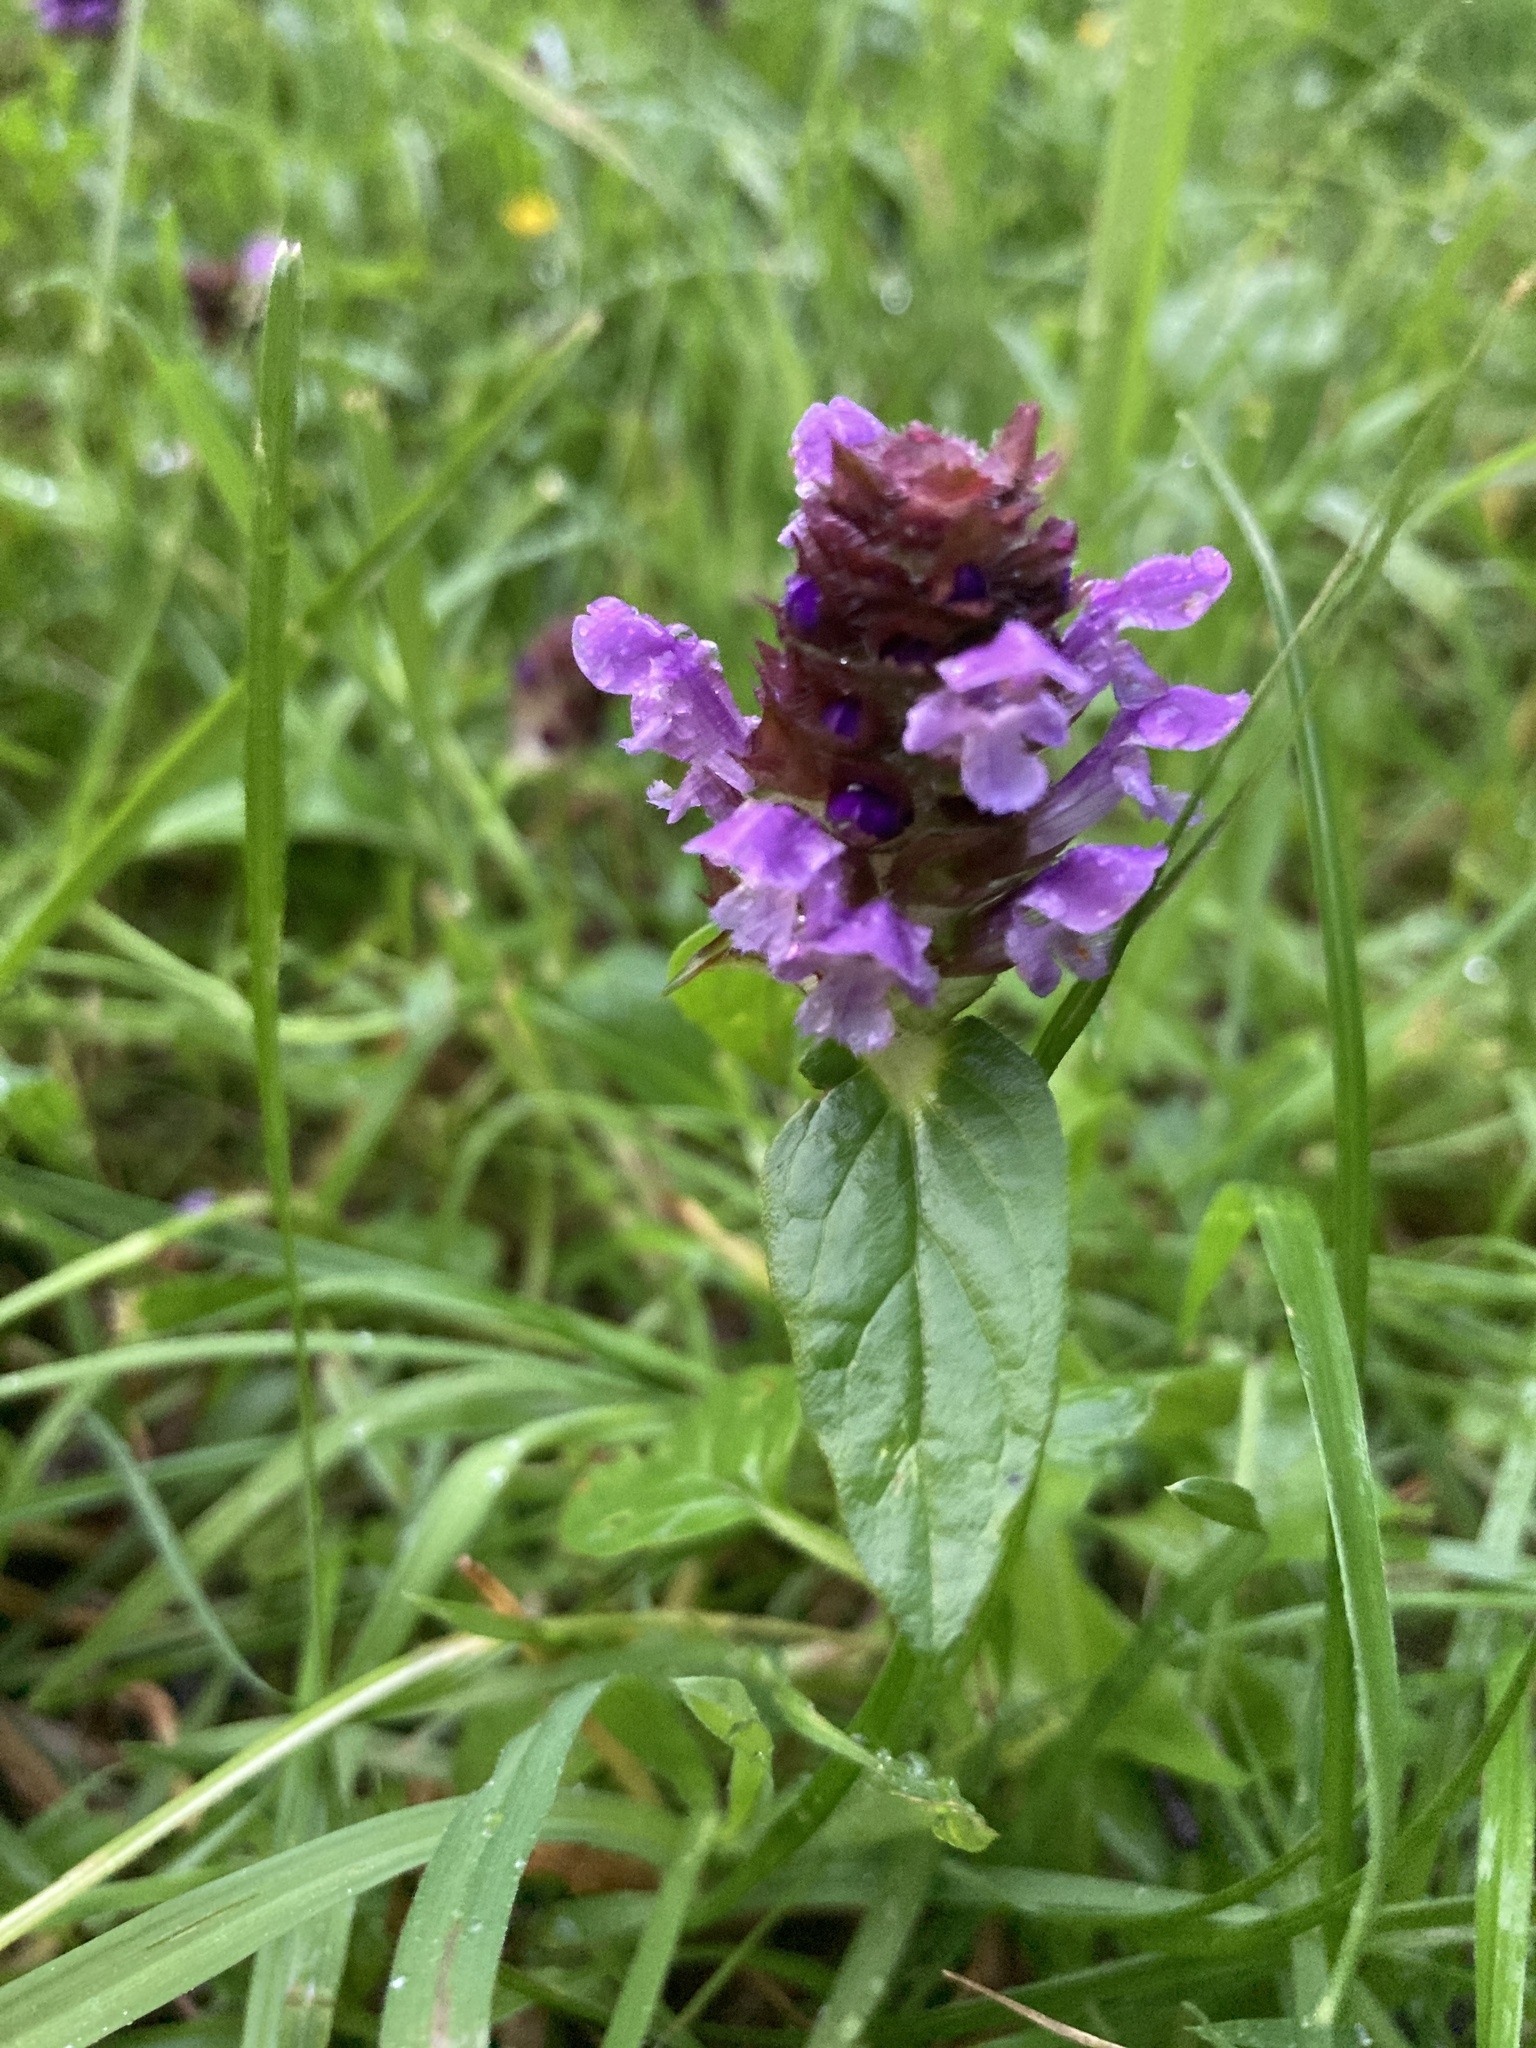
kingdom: Plantae
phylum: Tracheophyta
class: Magnoliopsida
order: Lamiales
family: Lamiaceae
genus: Prunella
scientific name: Prunella vulgaris
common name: Heal-all
